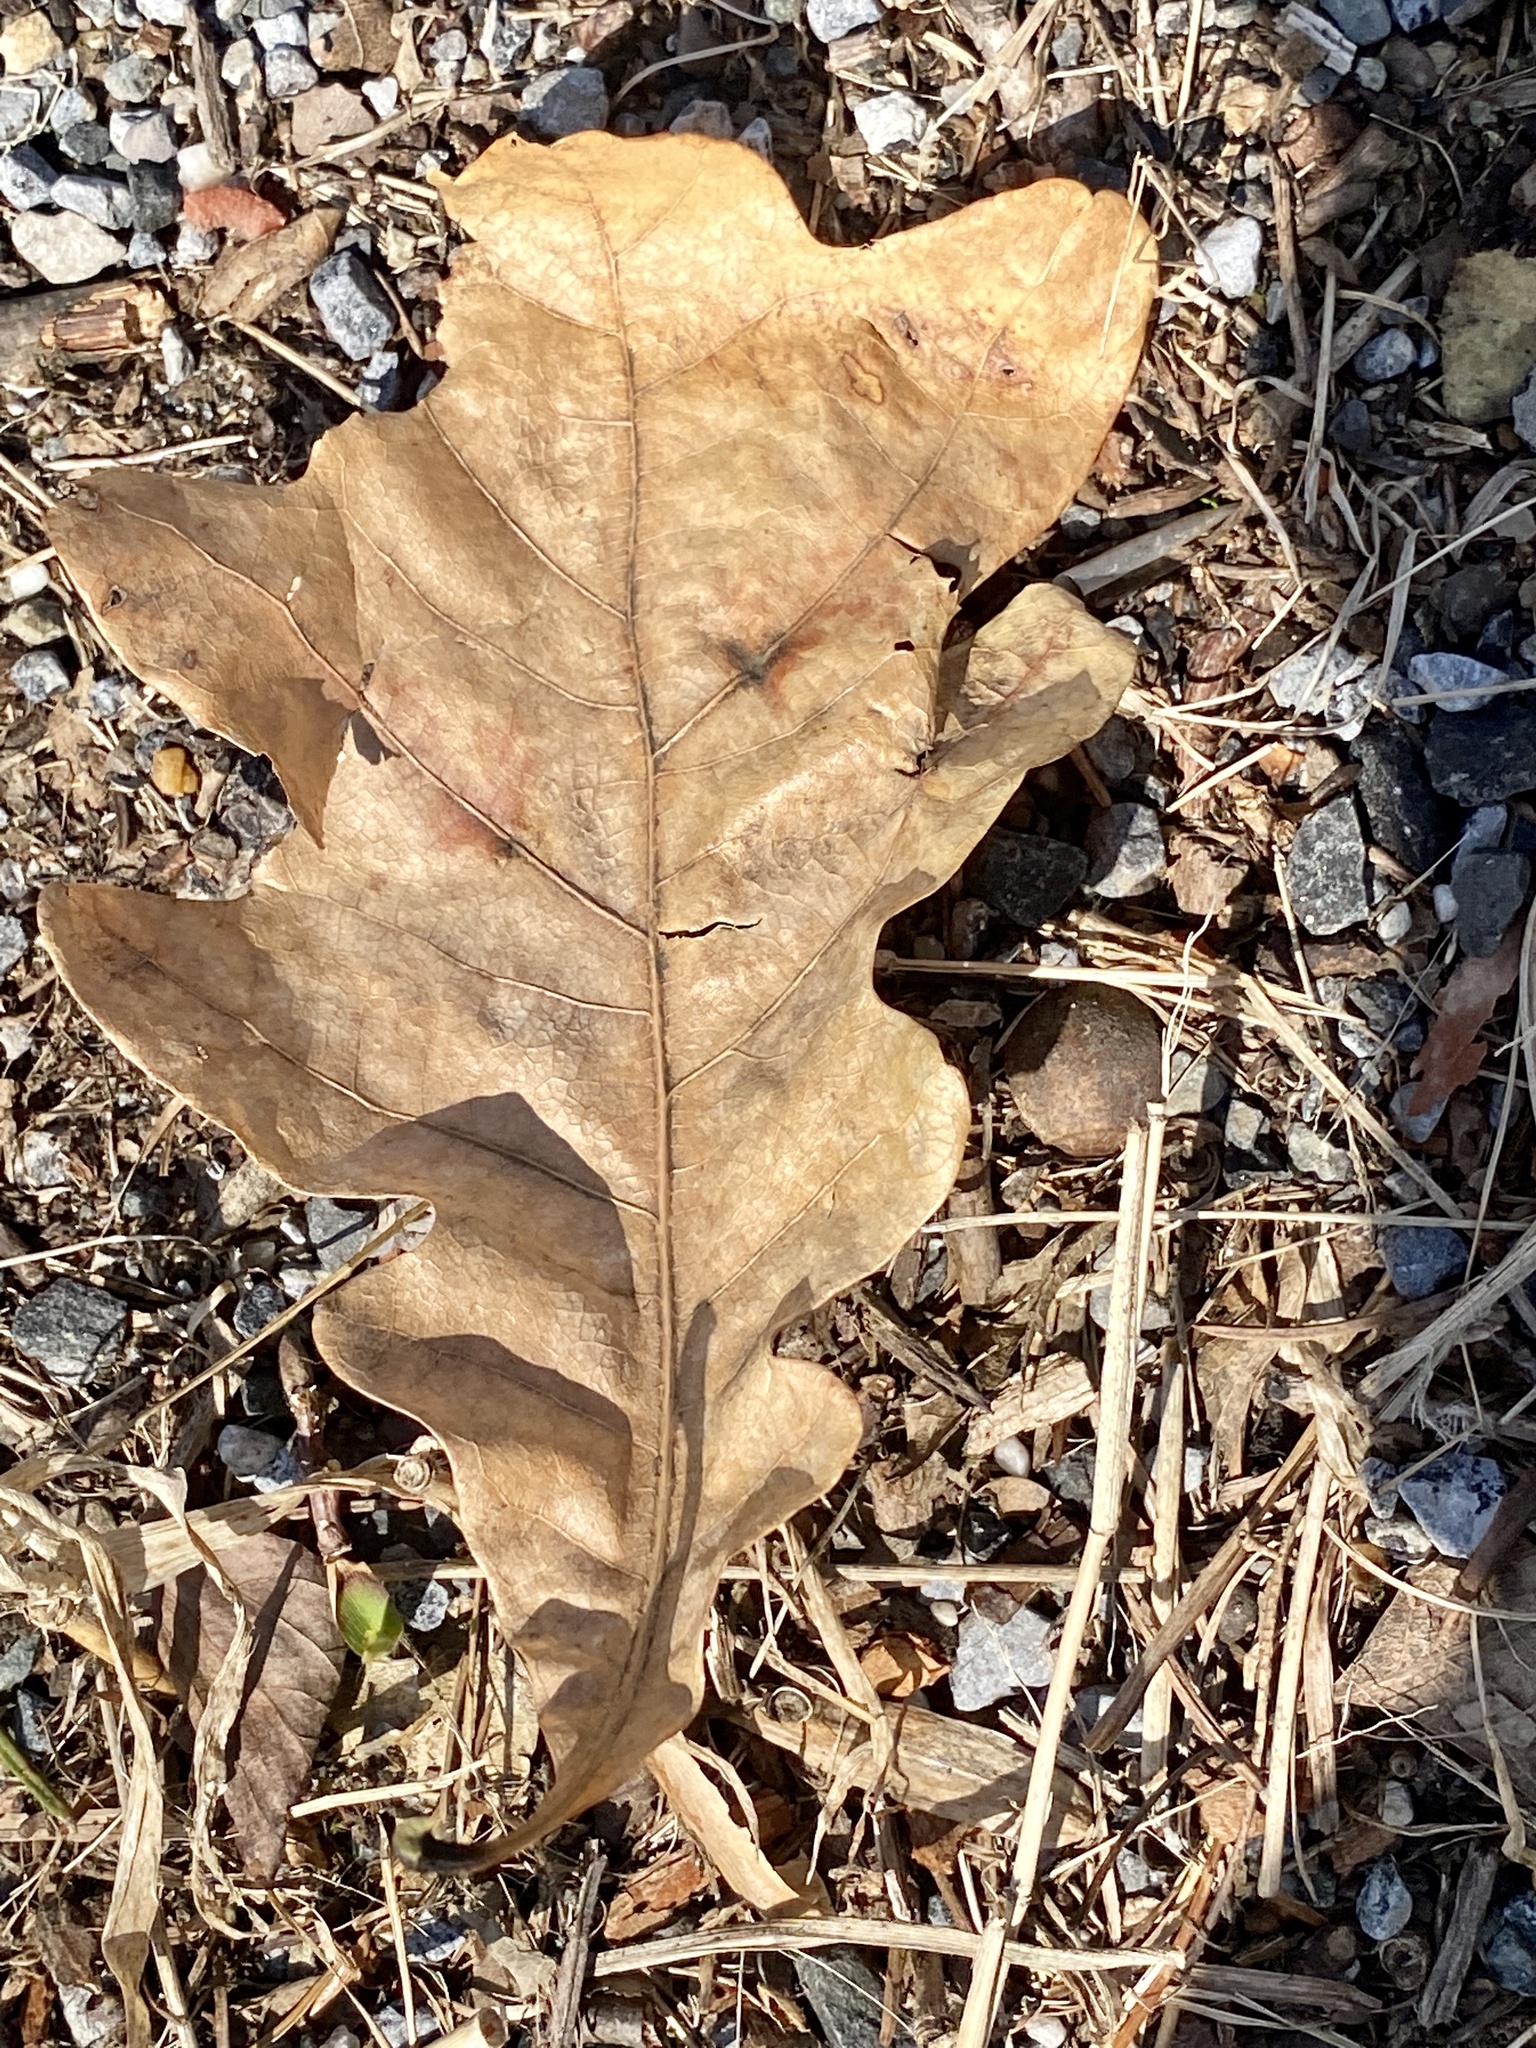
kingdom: Plantae
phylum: Tracheophyta
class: Magnoliopsida
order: Fagales
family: Fagaceae
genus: Quercus
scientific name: Quercus alba
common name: White oak
